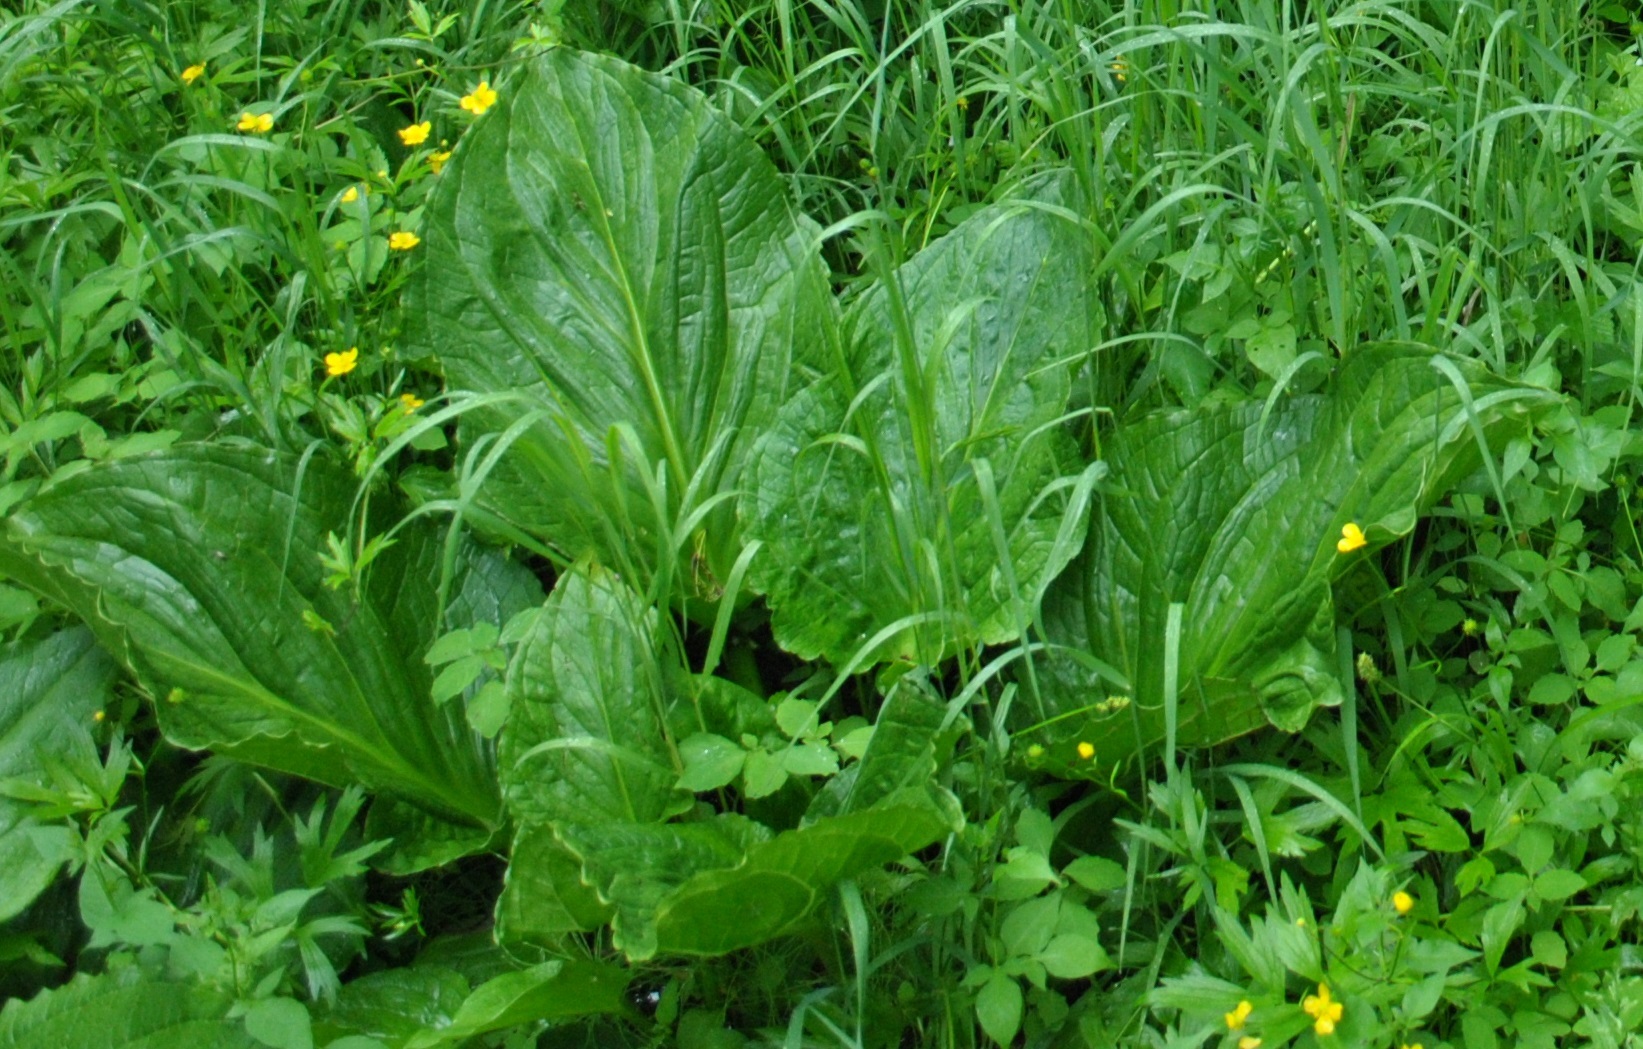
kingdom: Plantae
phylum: Tracheophyta
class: Liliopsida
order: Alismatales
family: Araceae
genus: Symplocarpus
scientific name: Symplocarpus foetidus
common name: Eastern skunk cabbage
